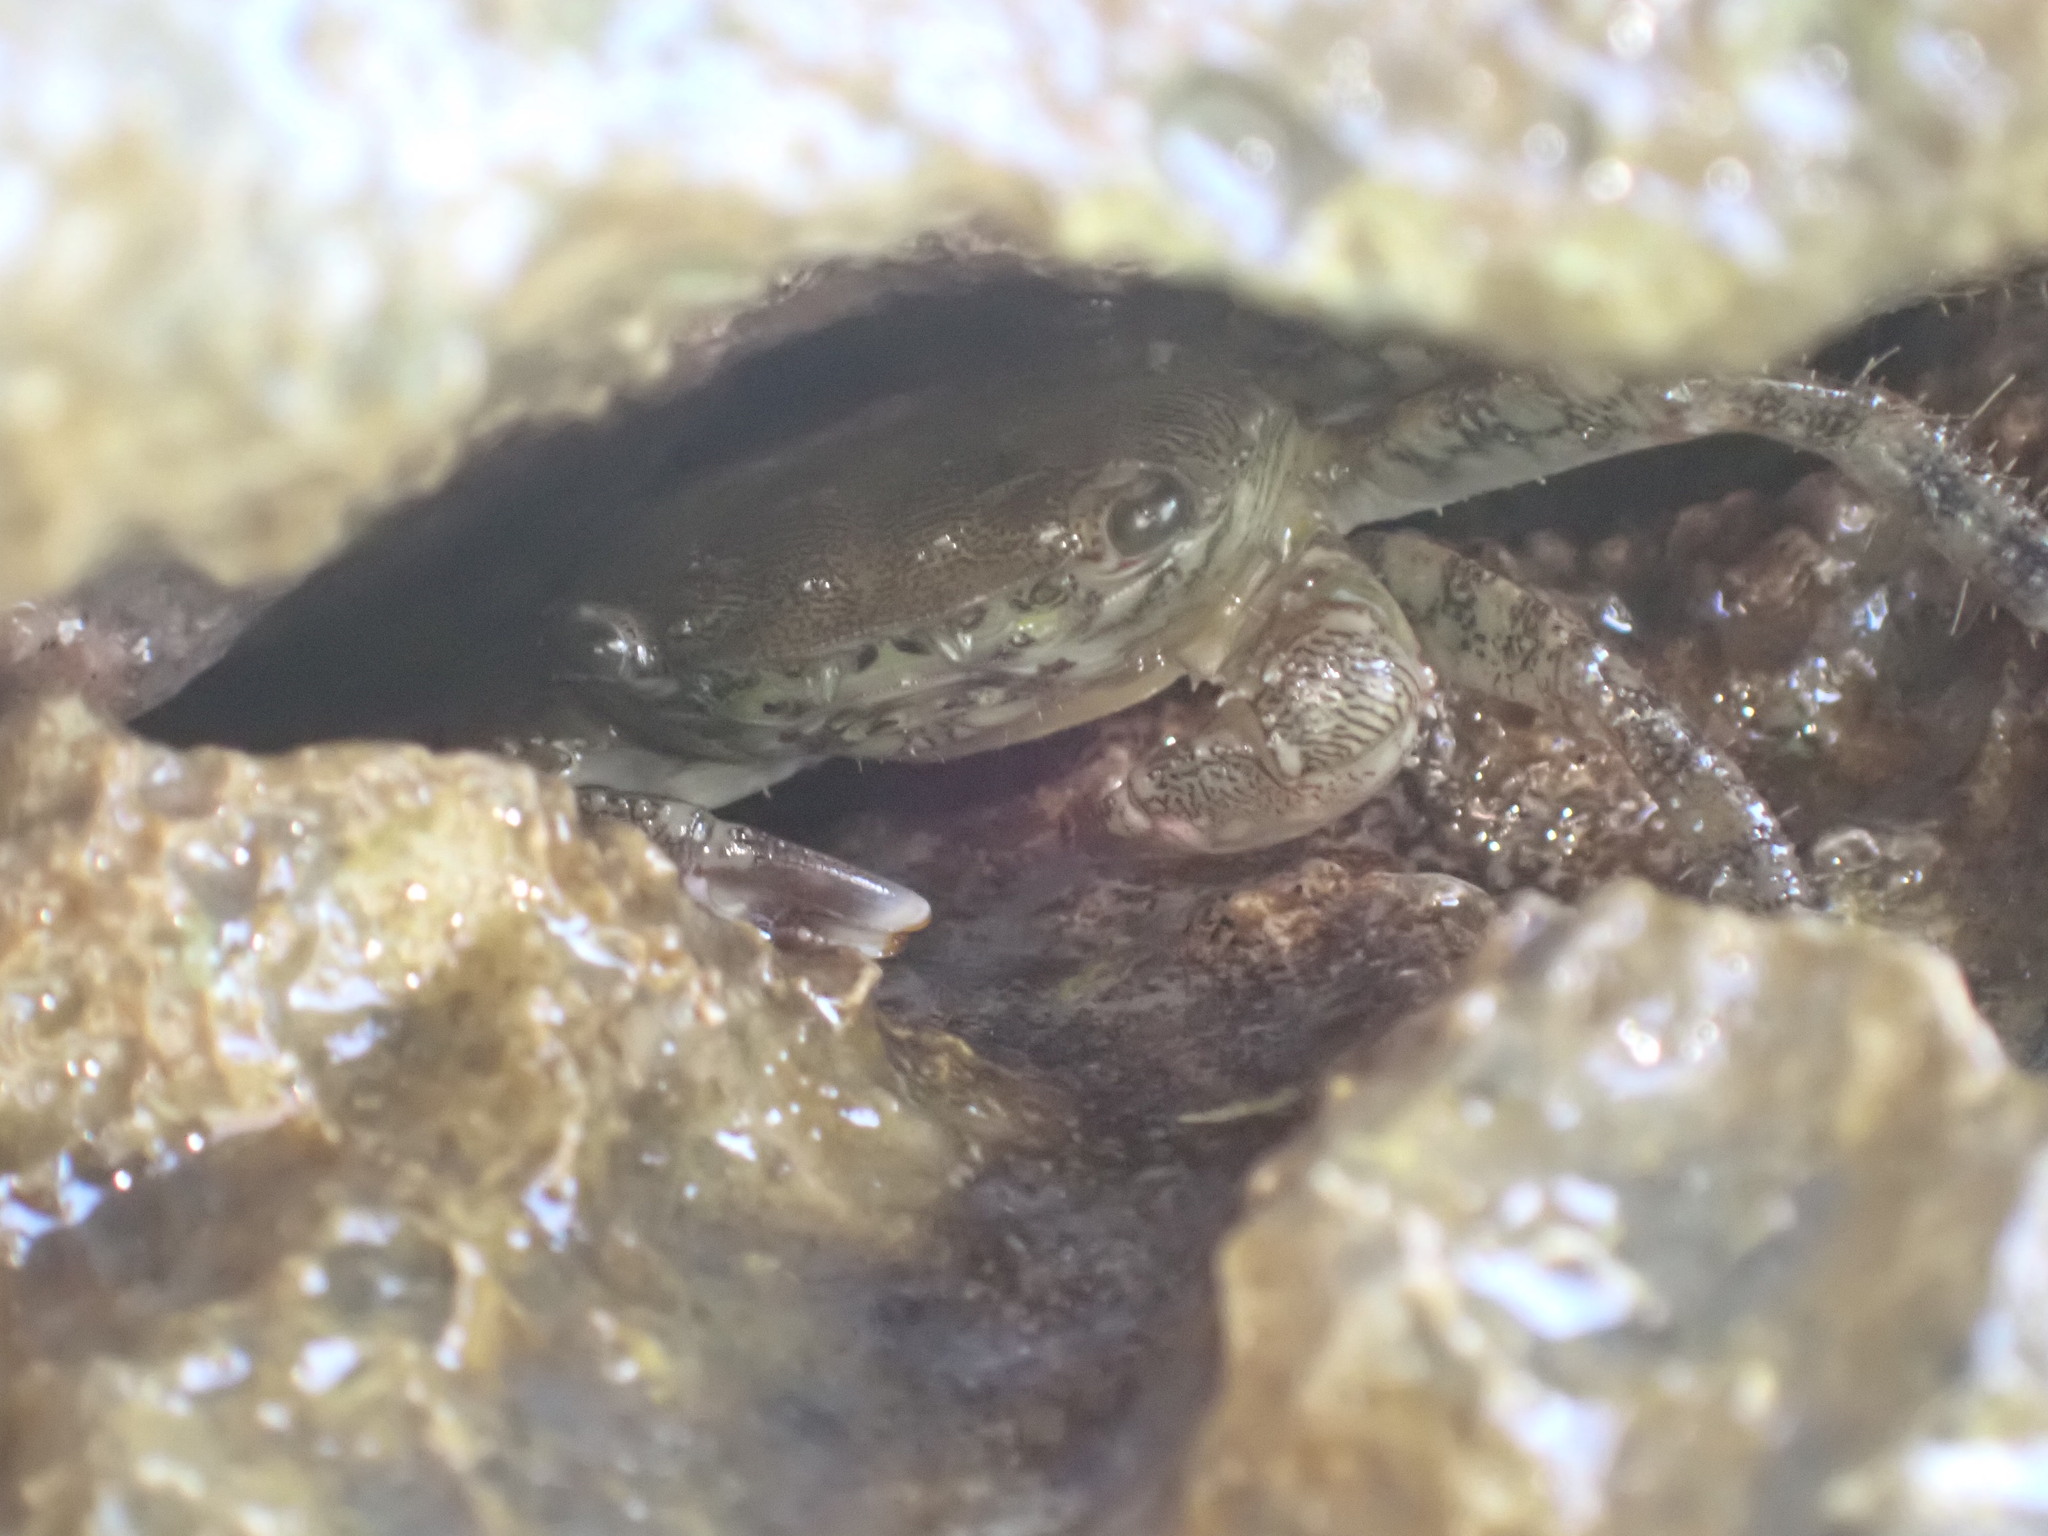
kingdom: Animalia
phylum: Arthropoda
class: Malacostraca
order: Decapoda
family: Grapsidae
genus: Pachygrapsus
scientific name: Pachygrapsus marmoratus
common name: Marbled rock crab
